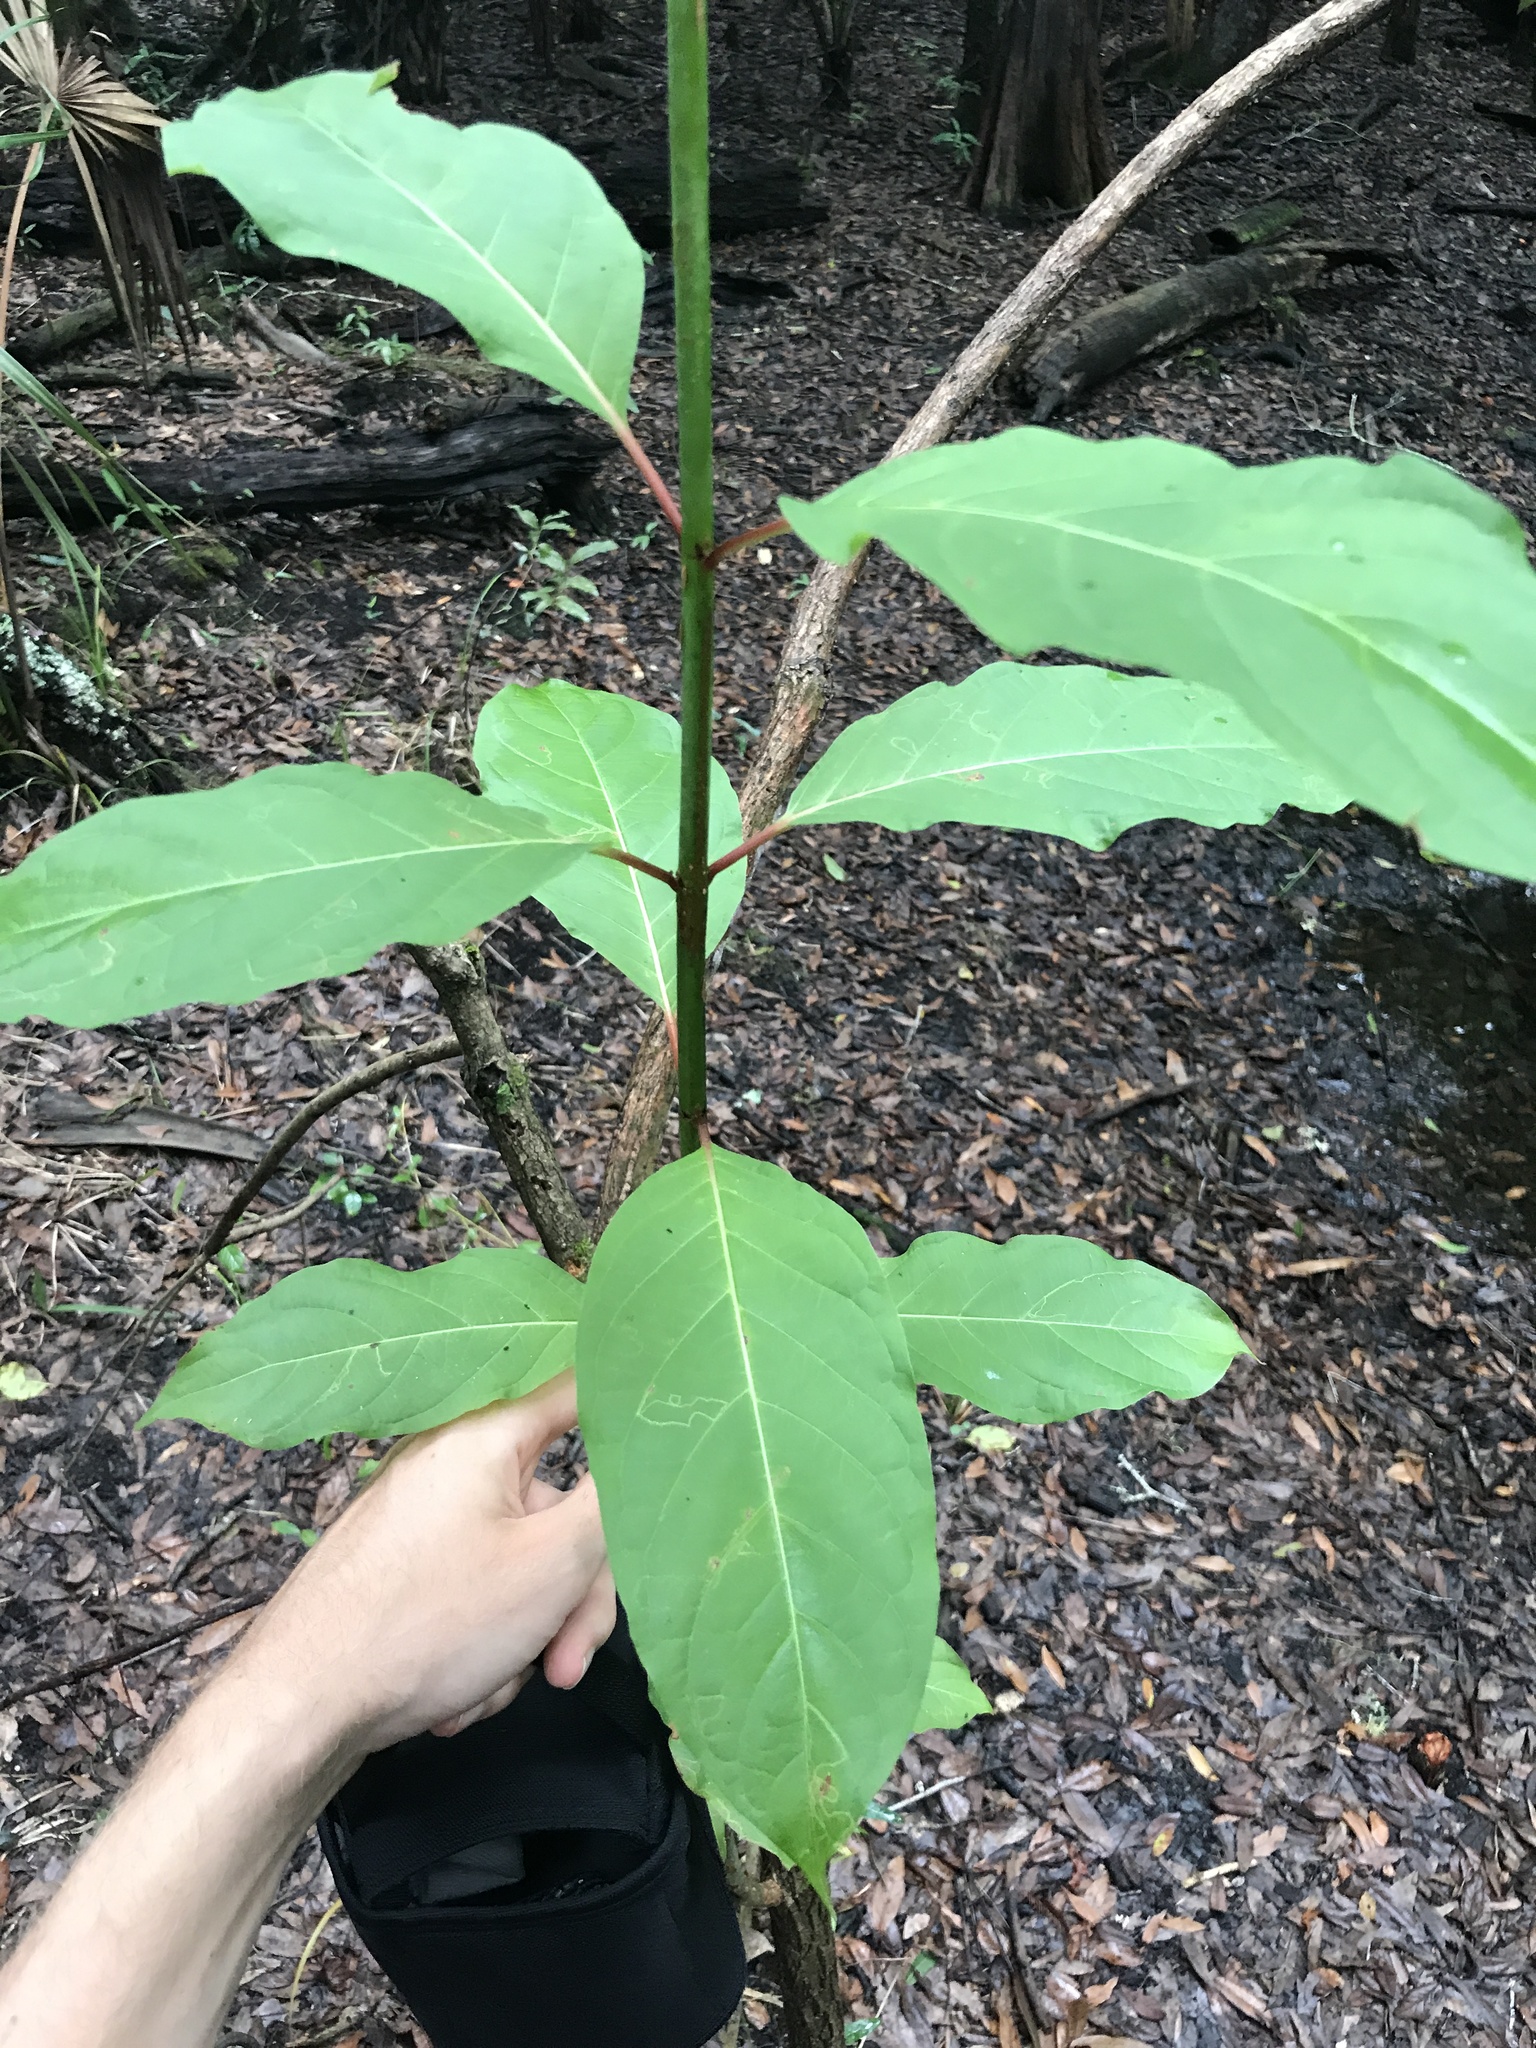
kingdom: Plantae
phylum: Tracheophyta
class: Magnoliopsida
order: Lamiales
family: Oleaceae
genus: Chionanthus
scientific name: Chionanthus virginicus
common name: American fringetree
